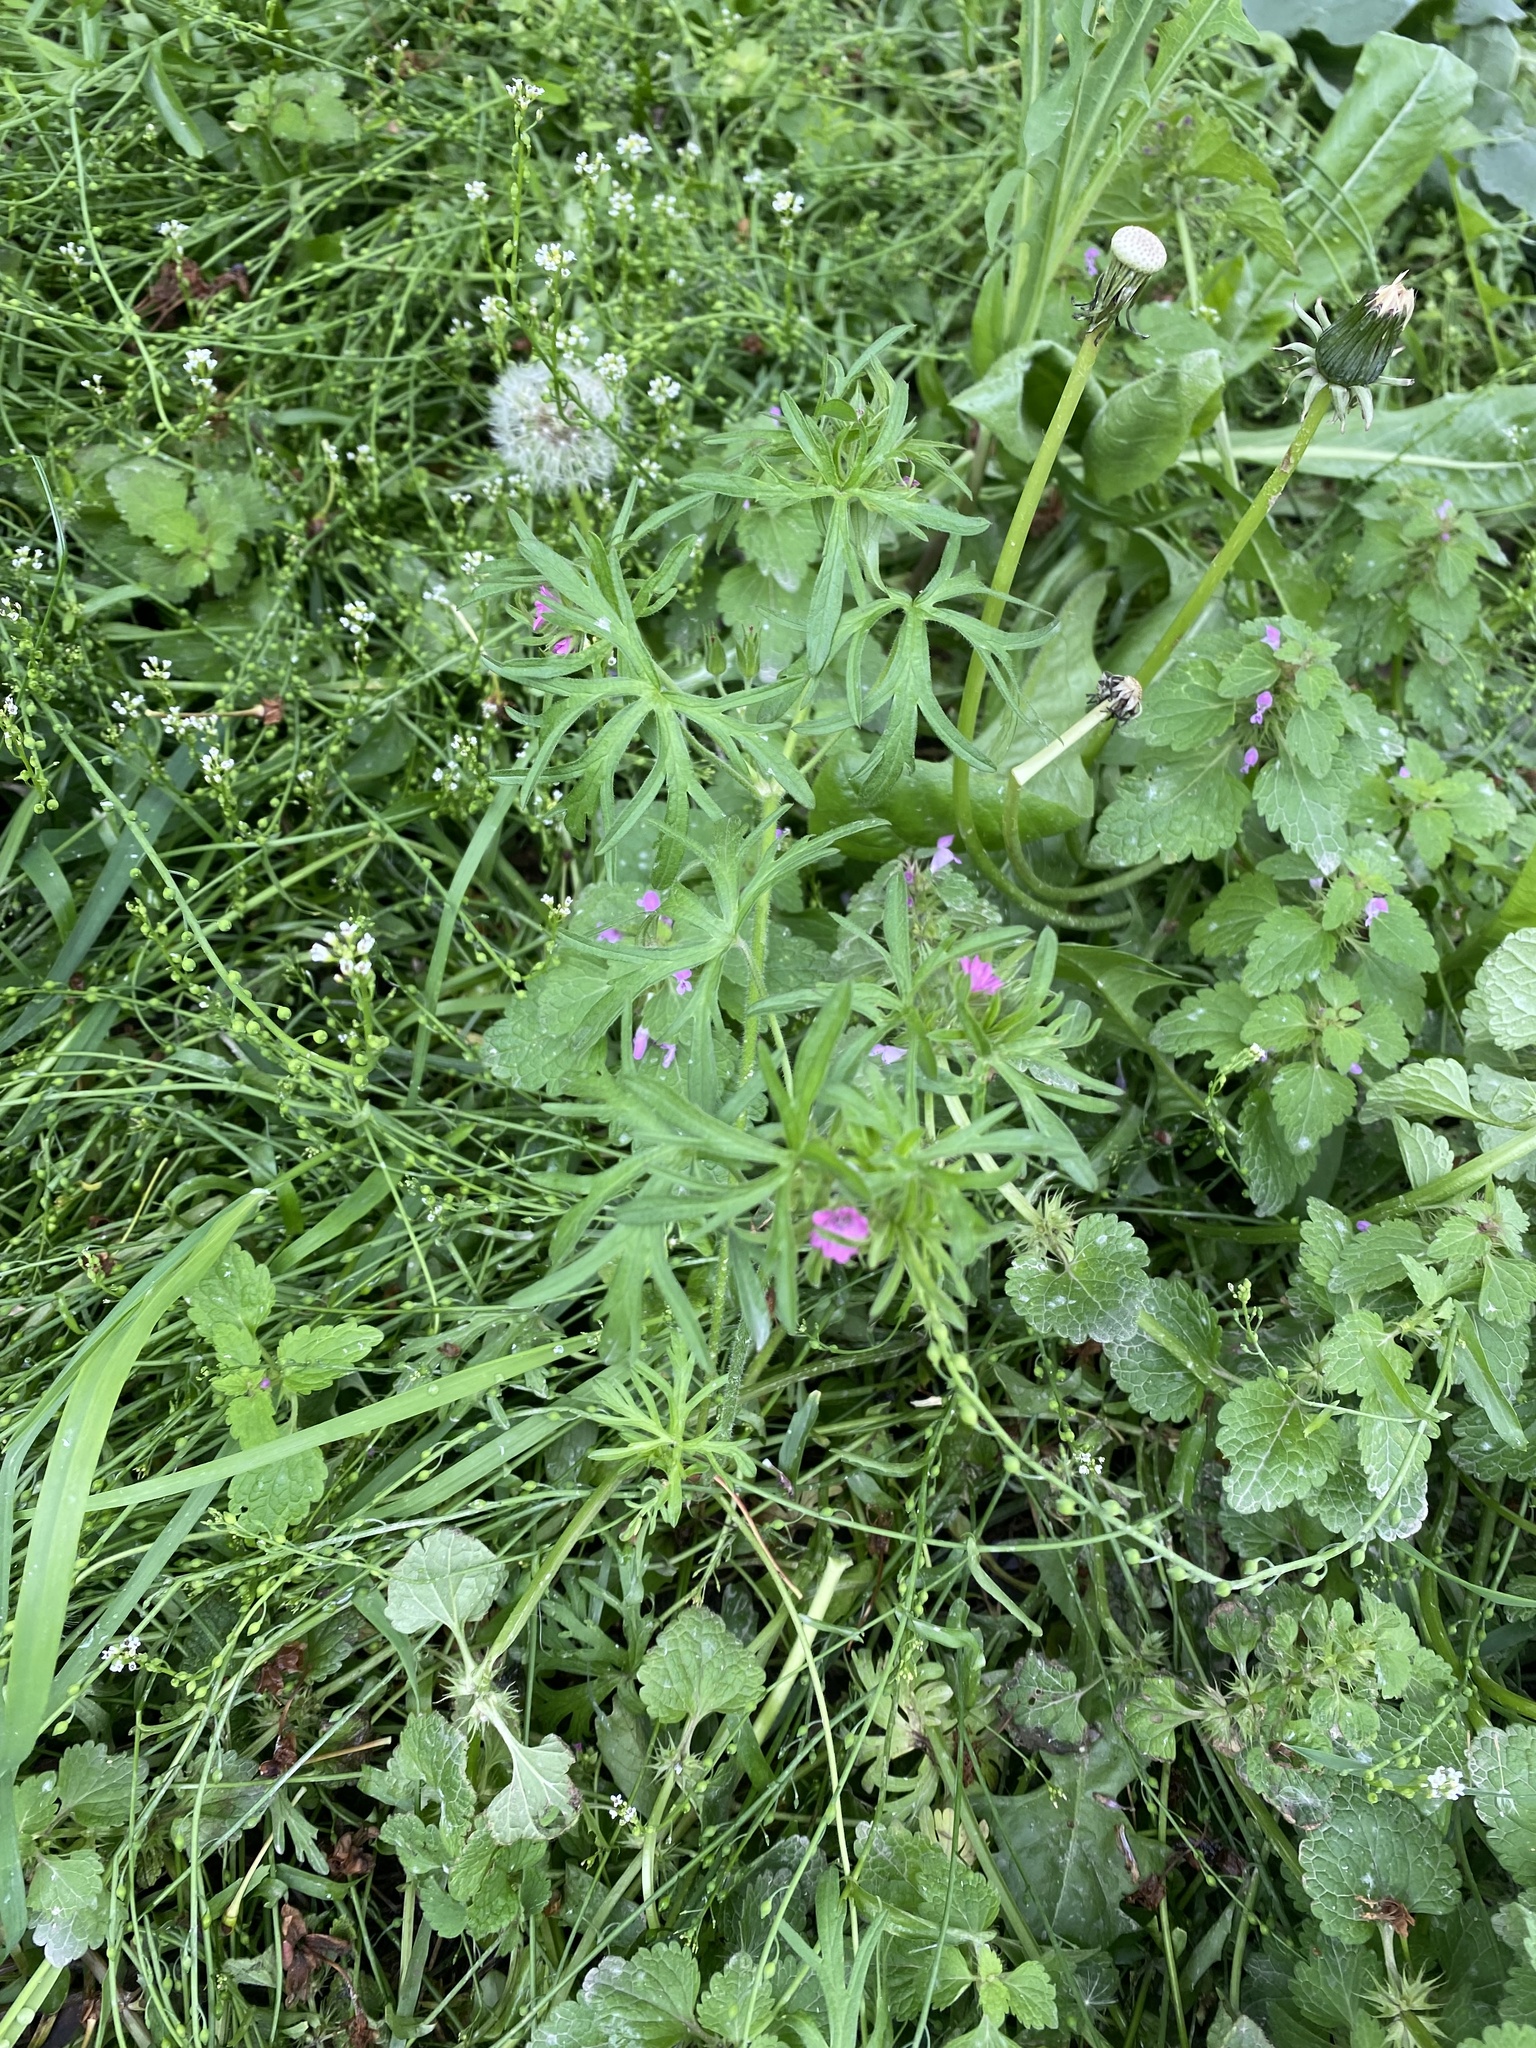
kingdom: Plantae
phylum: Tracheophyta
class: Magnoliopsida
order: Geraniales
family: Geraniaceae
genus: Geranium
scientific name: Geranium dissectum
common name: Cut-leaved crane's-bill
